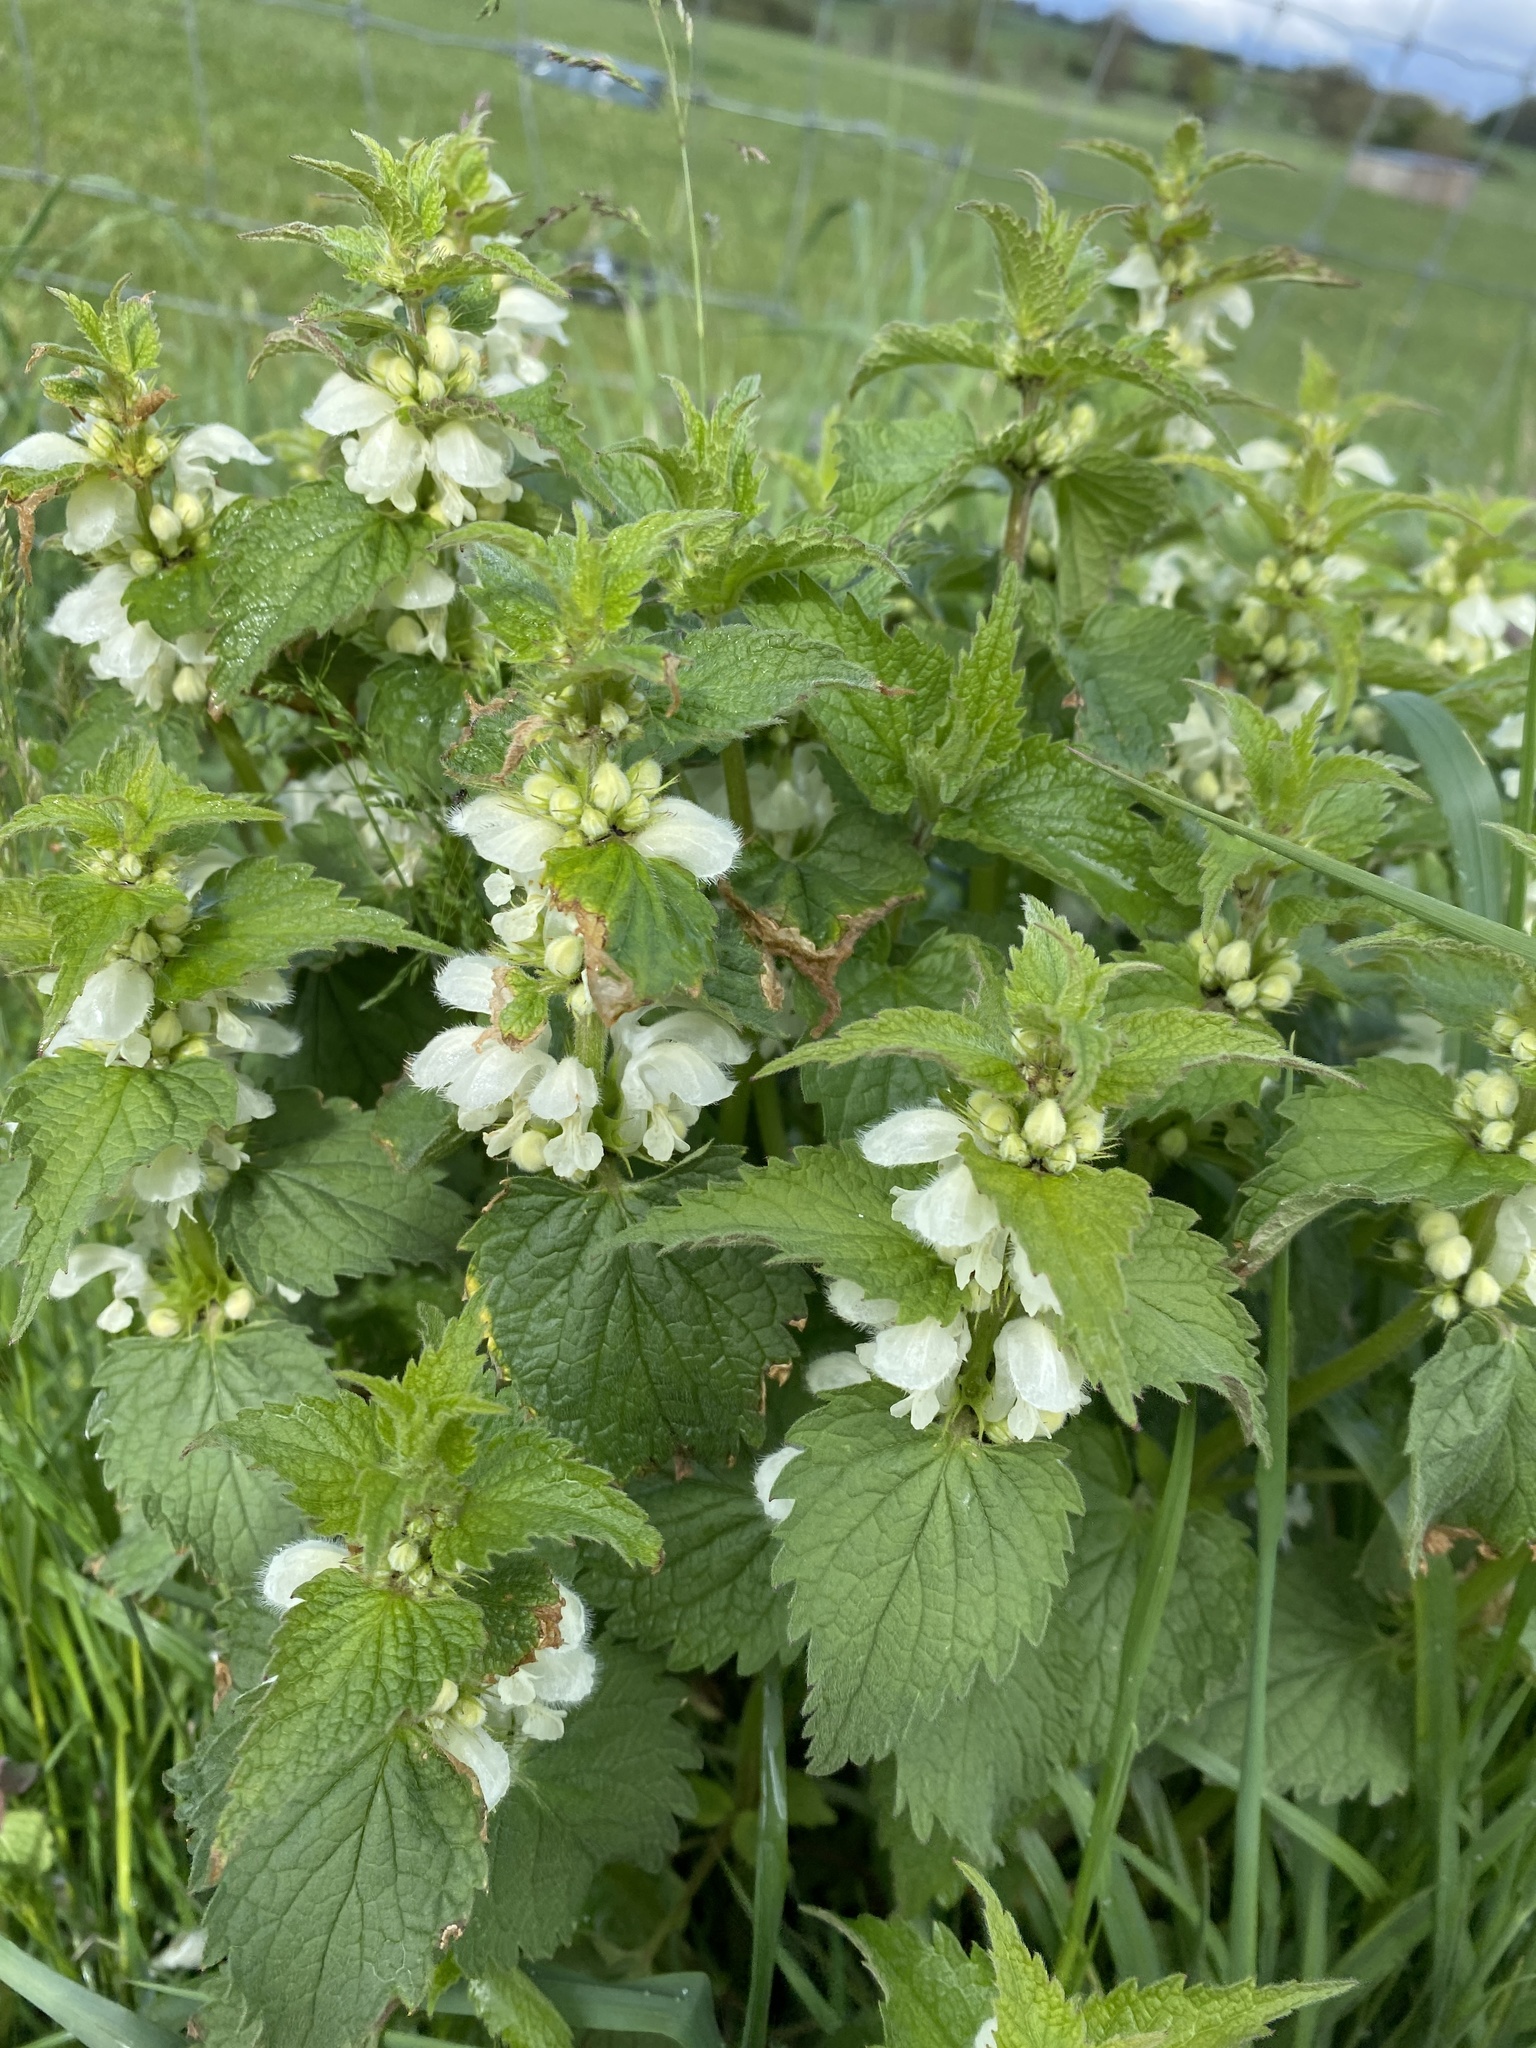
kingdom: Plantae
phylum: Tracheophyta
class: Magnoliopsida
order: Lamiales
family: Lamiaceae
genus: Lamium
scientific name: Lamium album
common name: White dead-nettle
